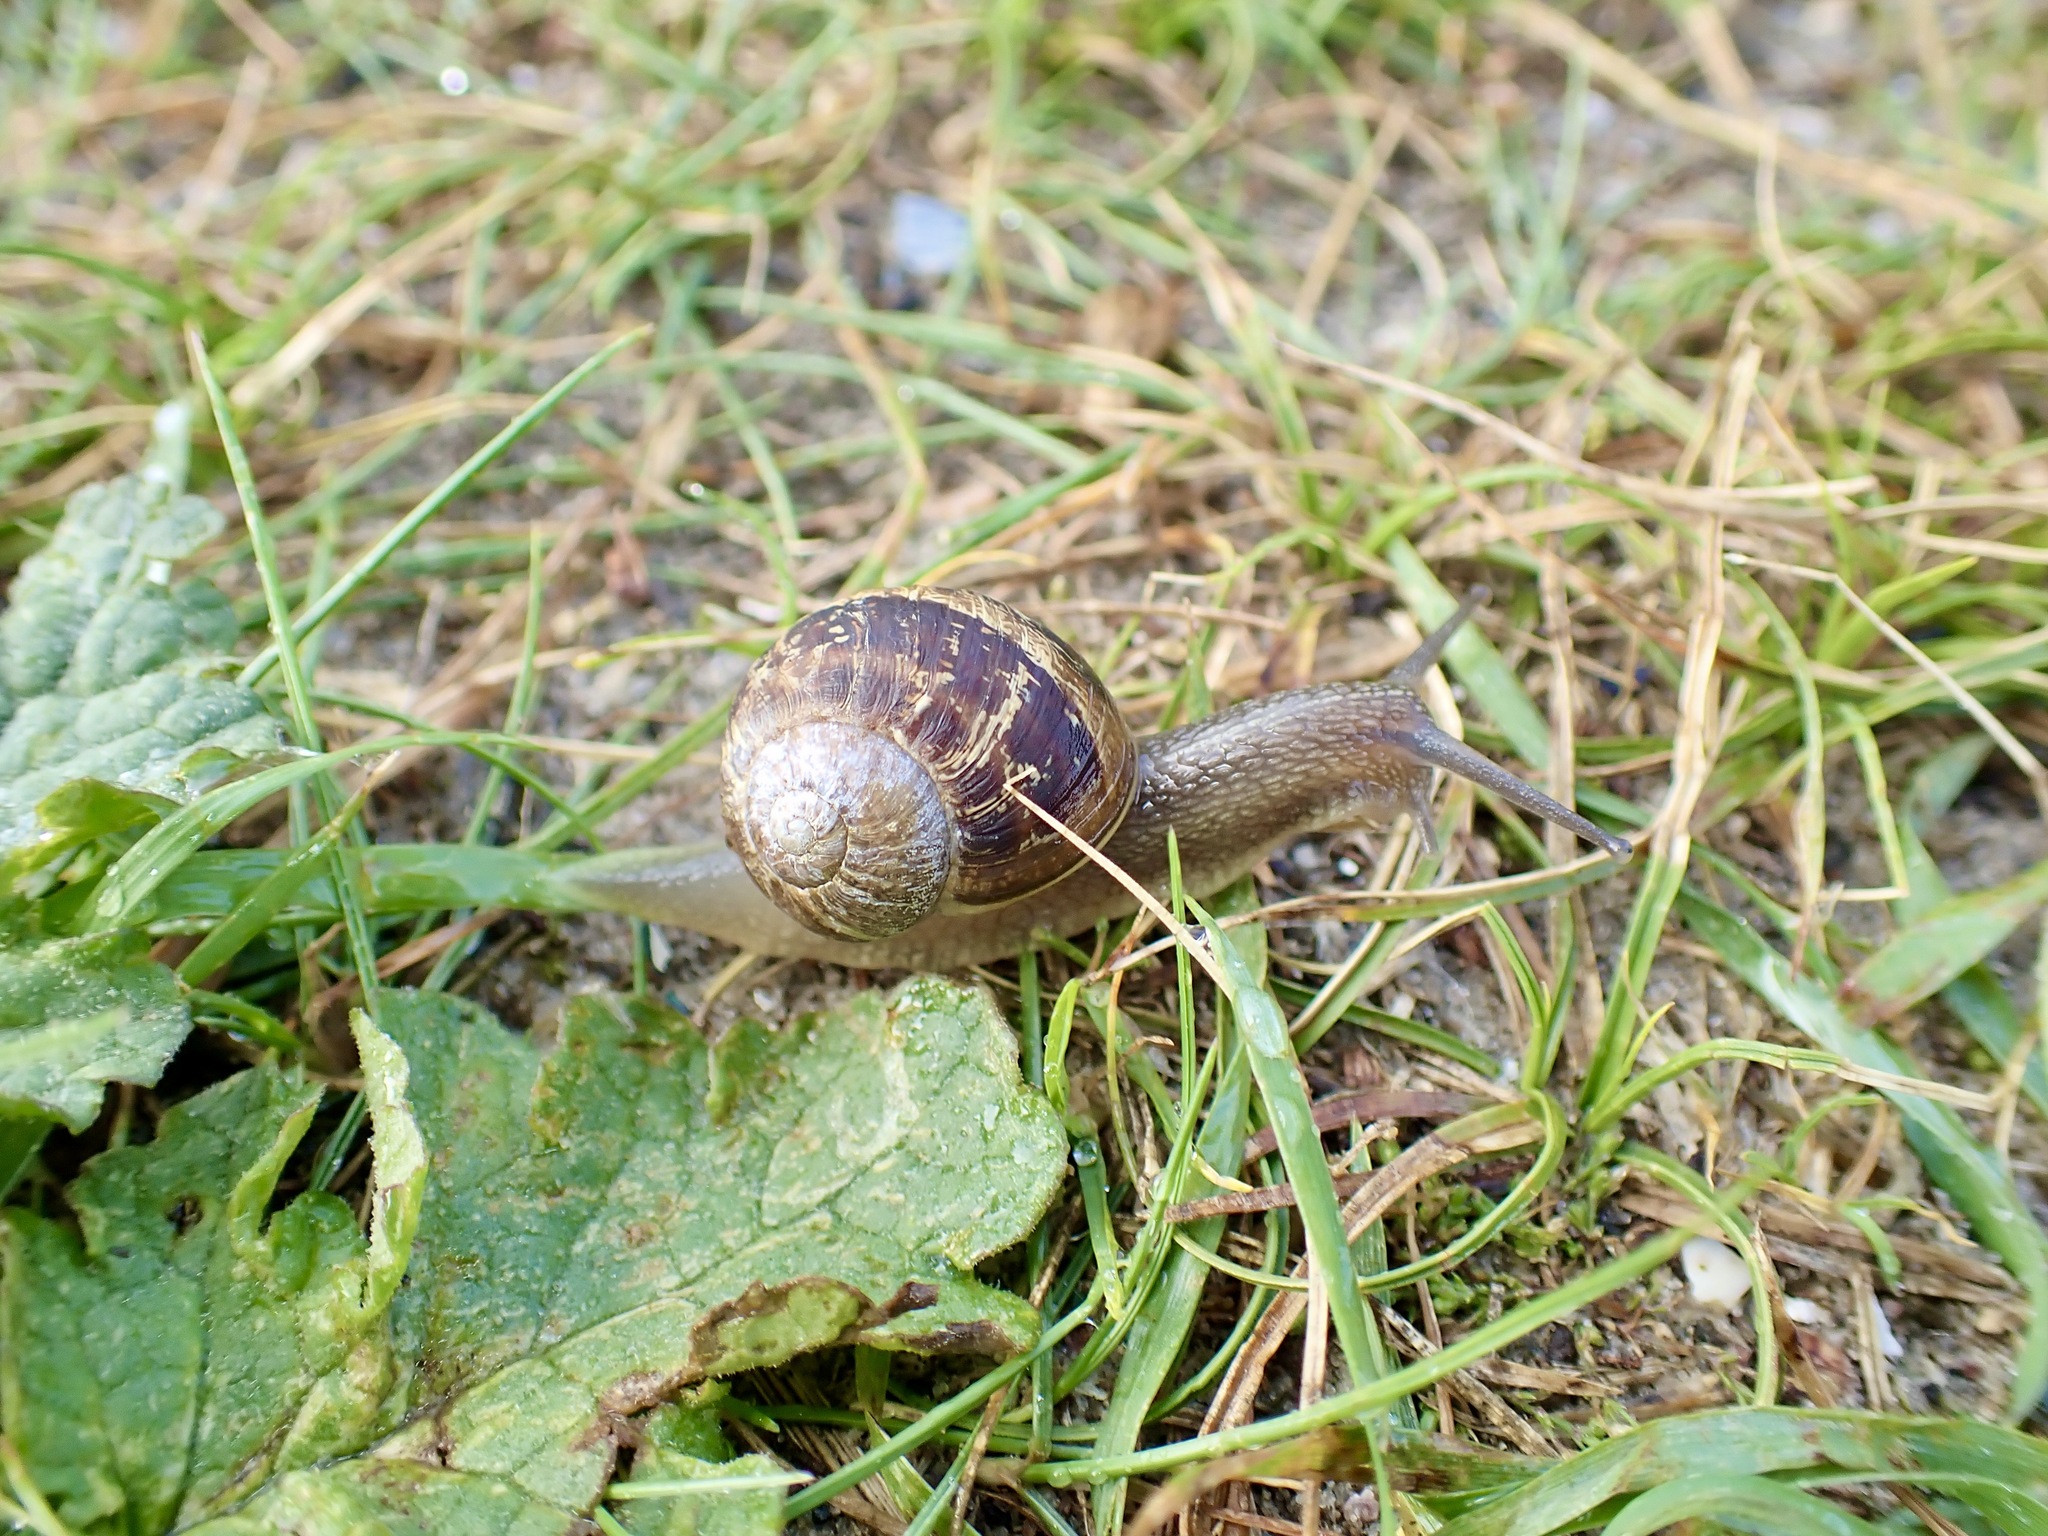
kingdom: Animalia
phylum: Mollusca
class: Gastropoda
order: Stylommatophora
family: Helicidae
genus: Cornu
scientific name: Cornu aspersum
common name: Brown garden snail
